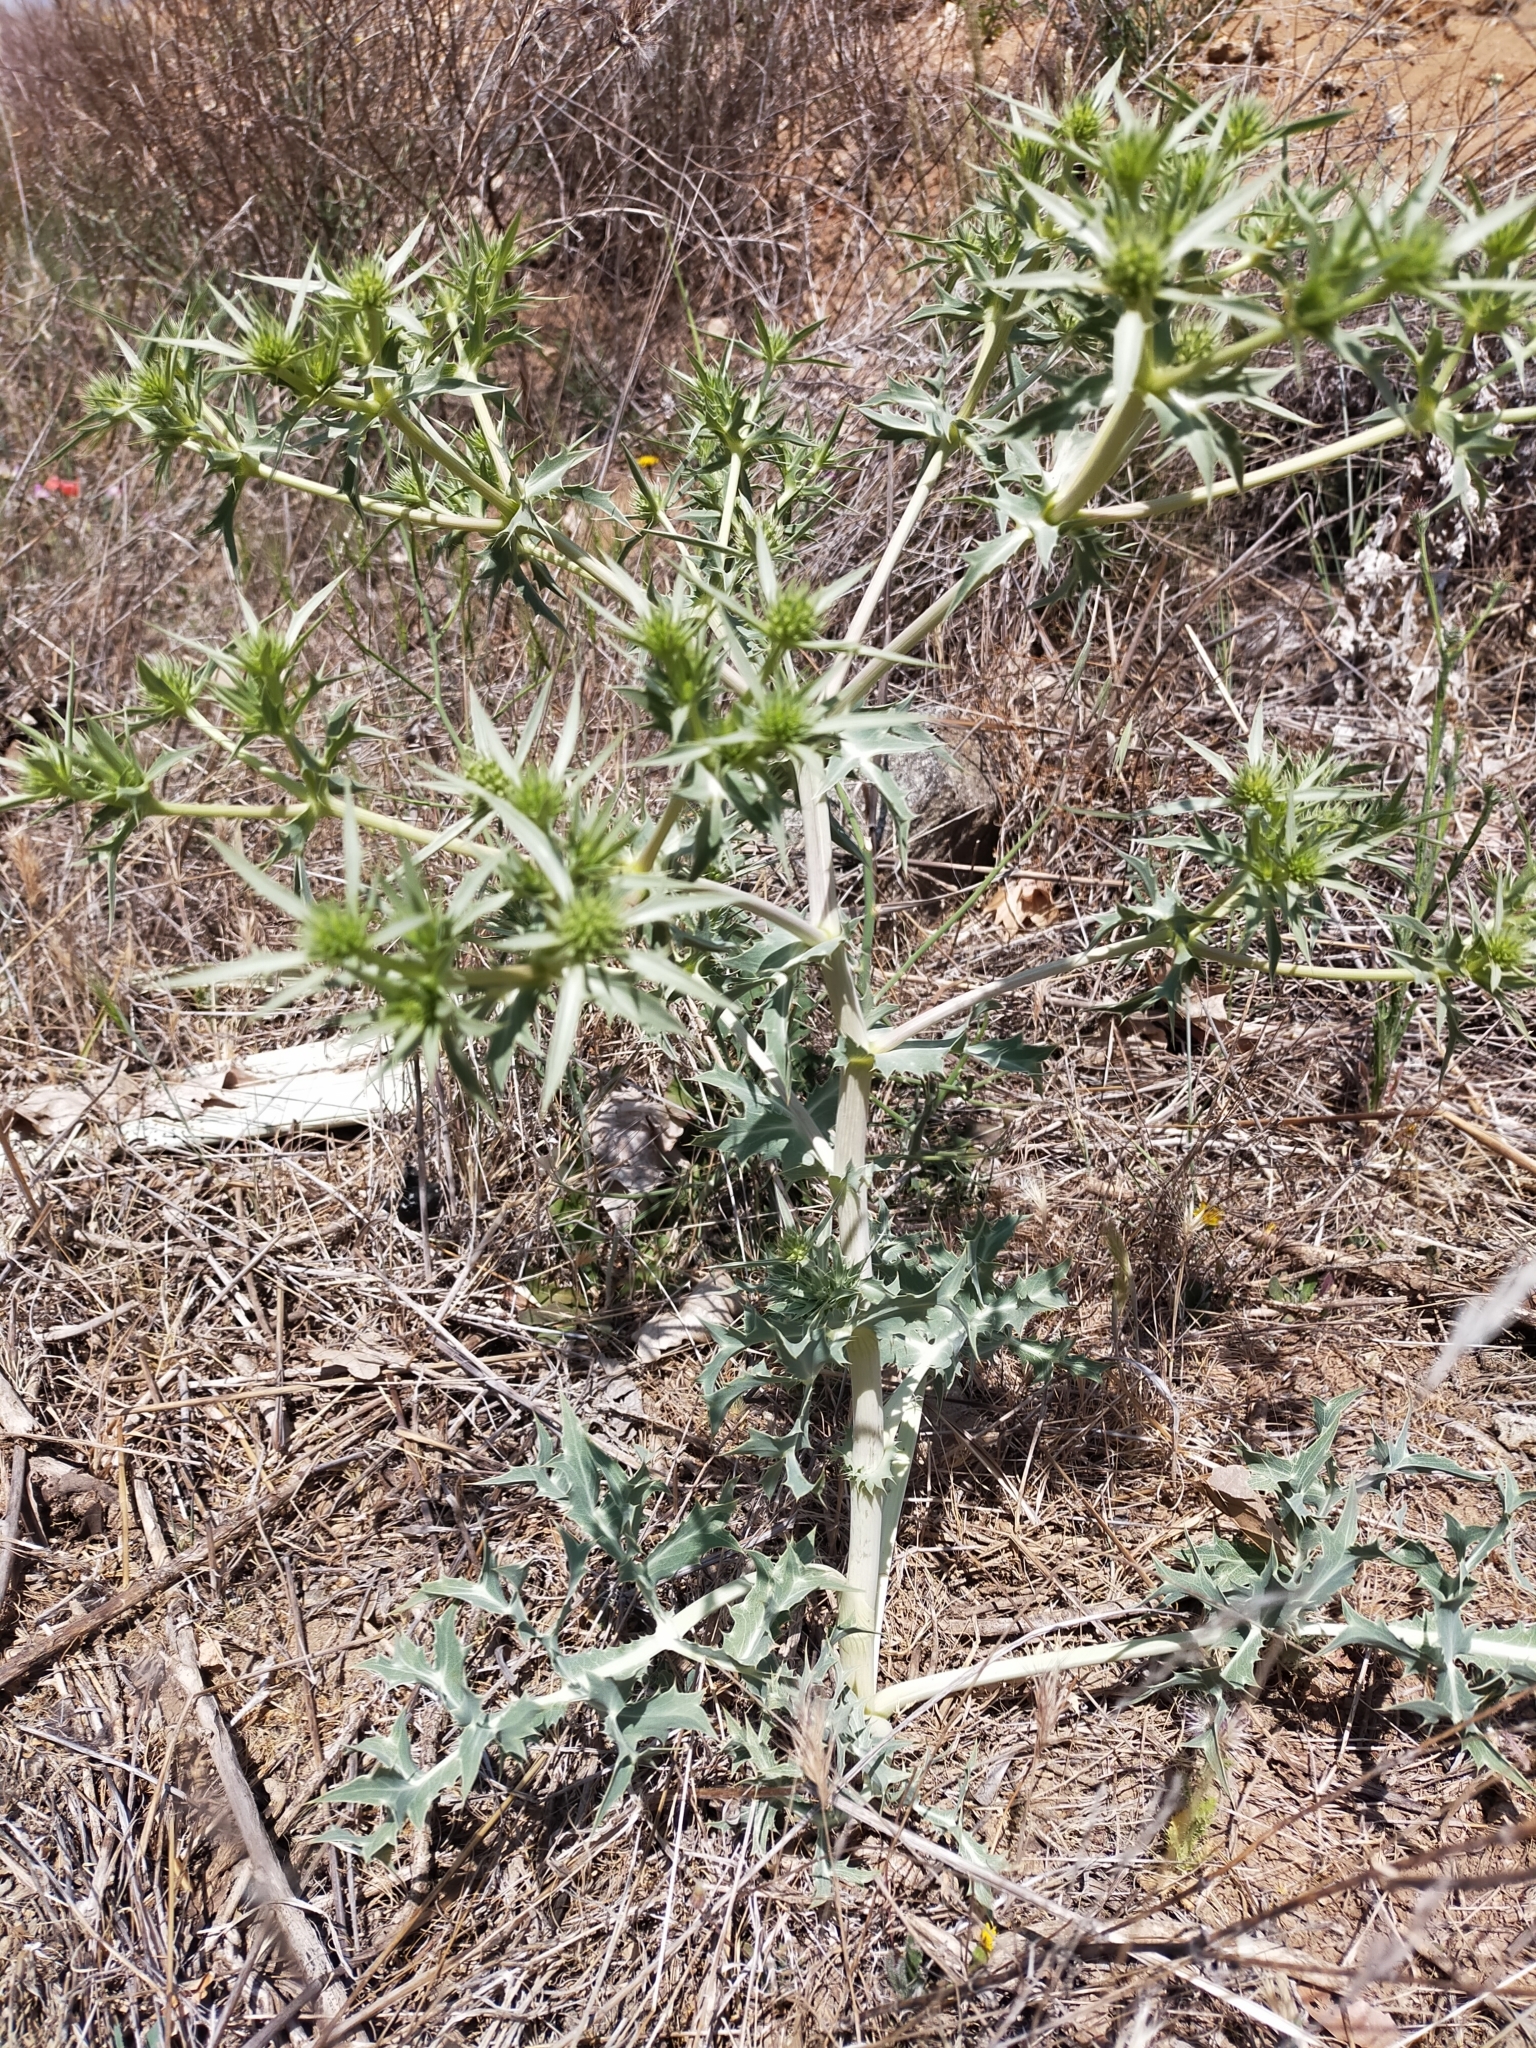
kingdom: Plantae
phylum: Tracheophyta
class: Magnoliopsida
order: Apiales
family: Apiaceae
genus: Eryngium
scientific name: Eryngium campestre
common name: Field eryngo
